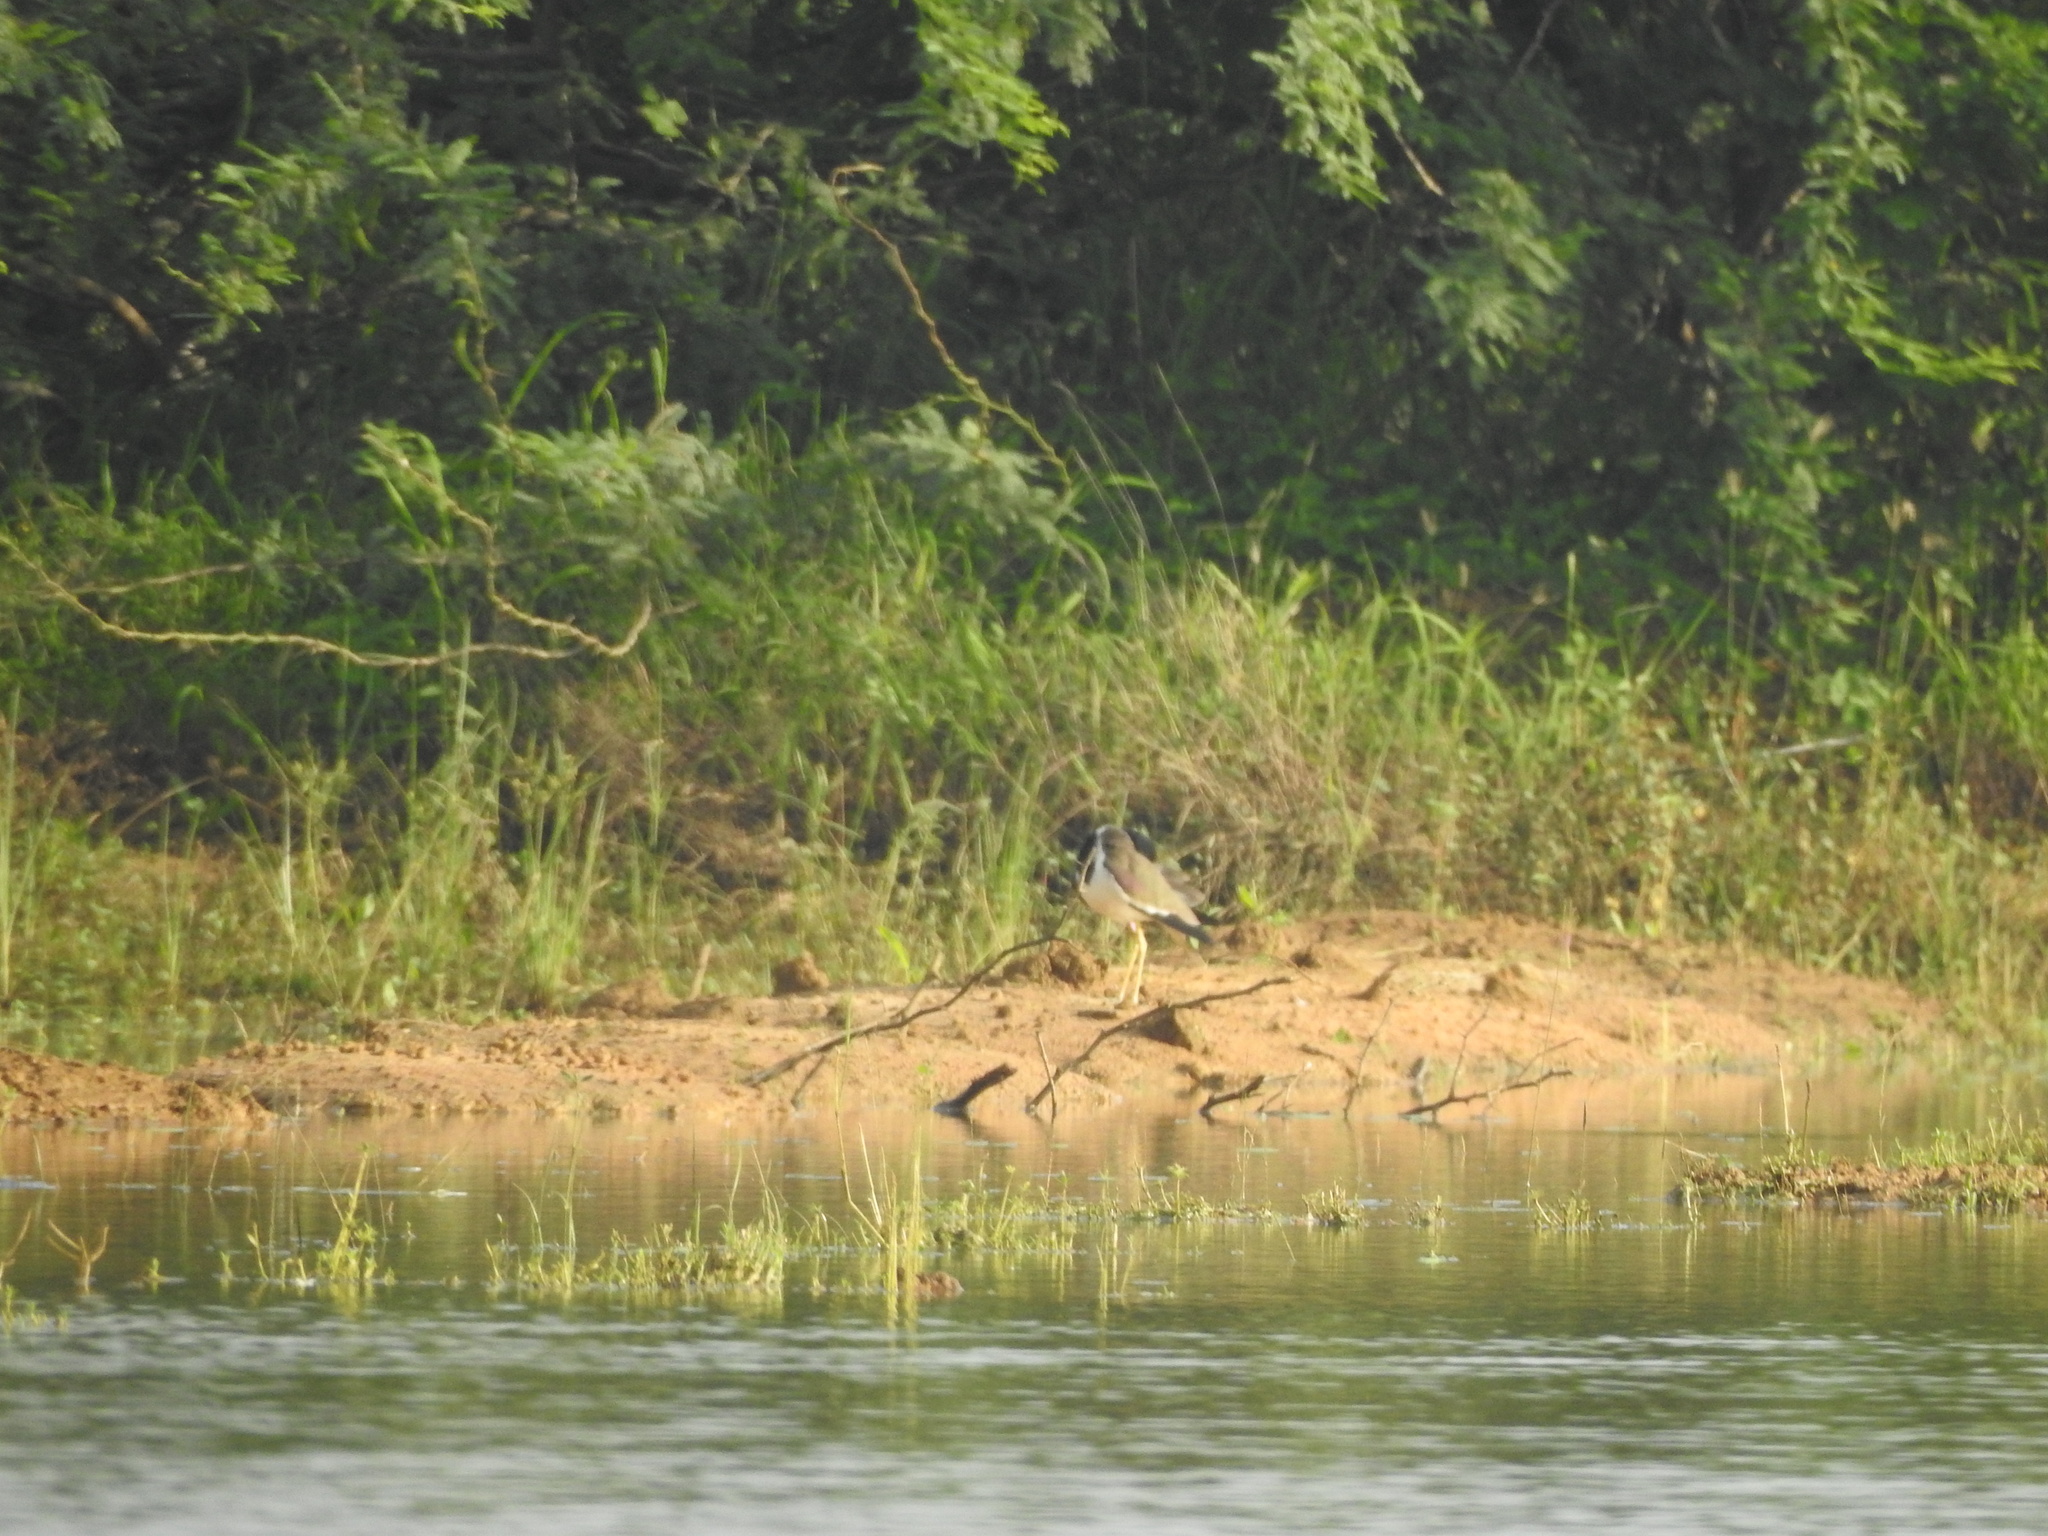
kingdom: Animalia
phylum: Chordata
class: Aves
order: Charadriiformes
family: Charadriidae
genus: Vanellus
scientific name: Vanellus indicus
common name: Red-wattled lapwing
